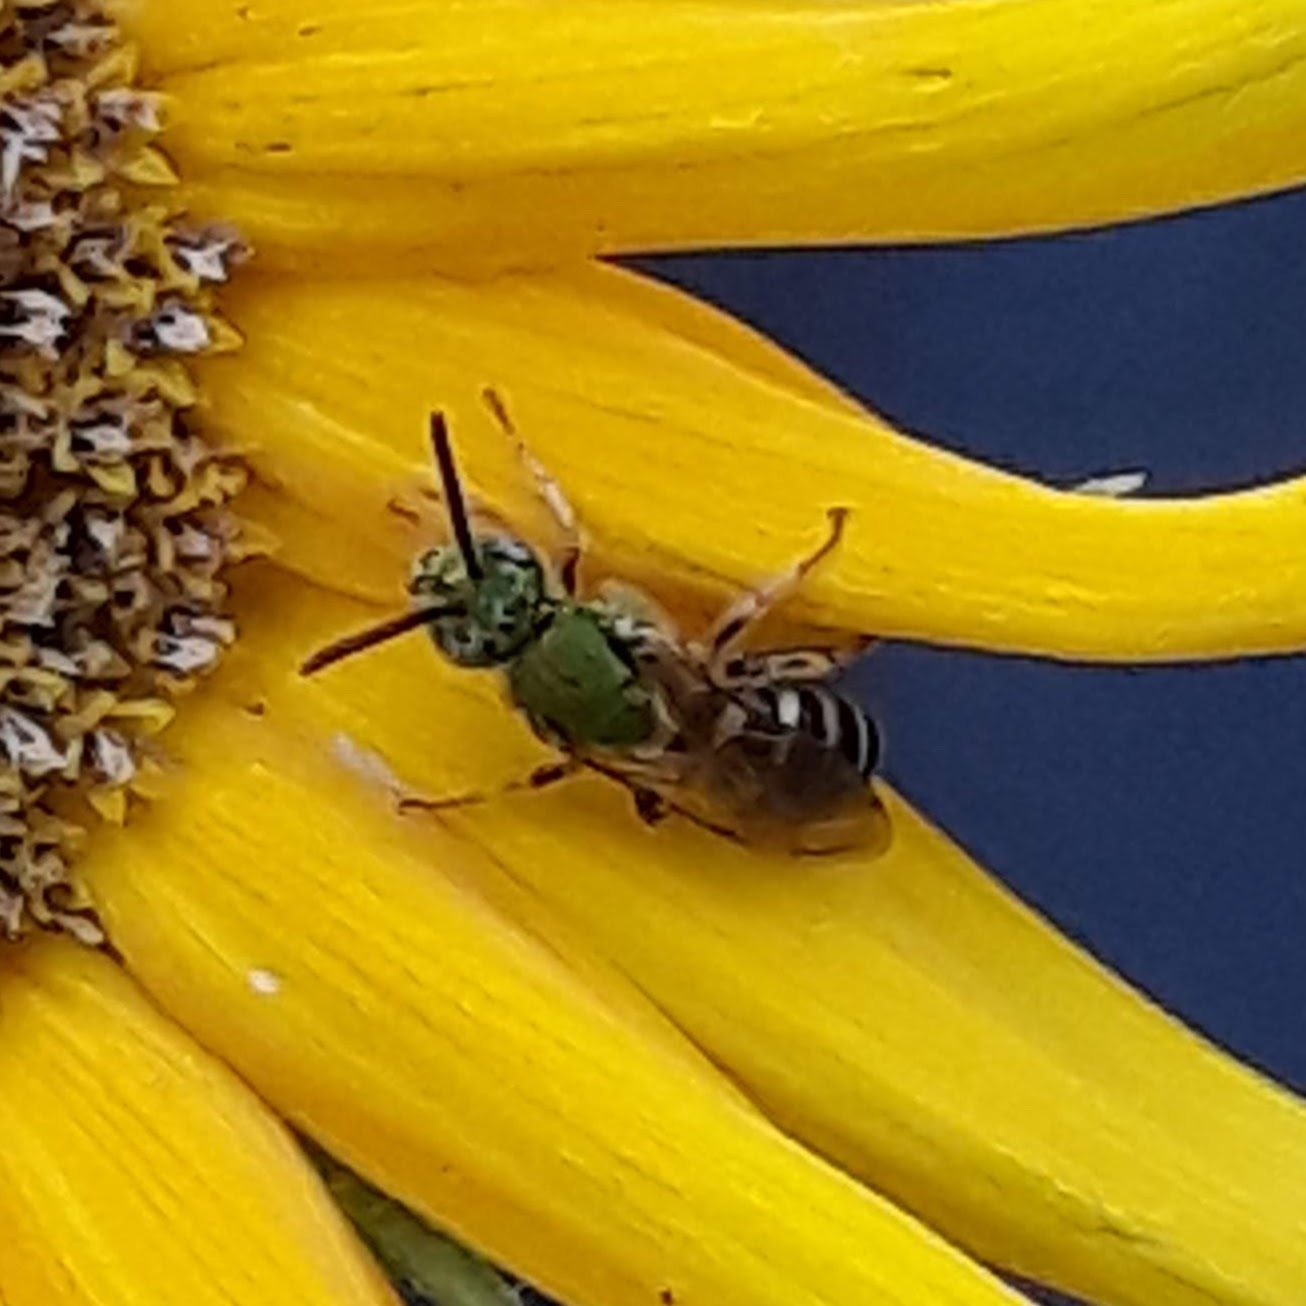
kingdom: Animalia
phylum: Arthropoda
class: Insecta
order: Hymenoptera
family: Halictidae
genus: Agapostemon
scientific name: Agapostemon virescens
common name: Bicolored striped sweat bee
